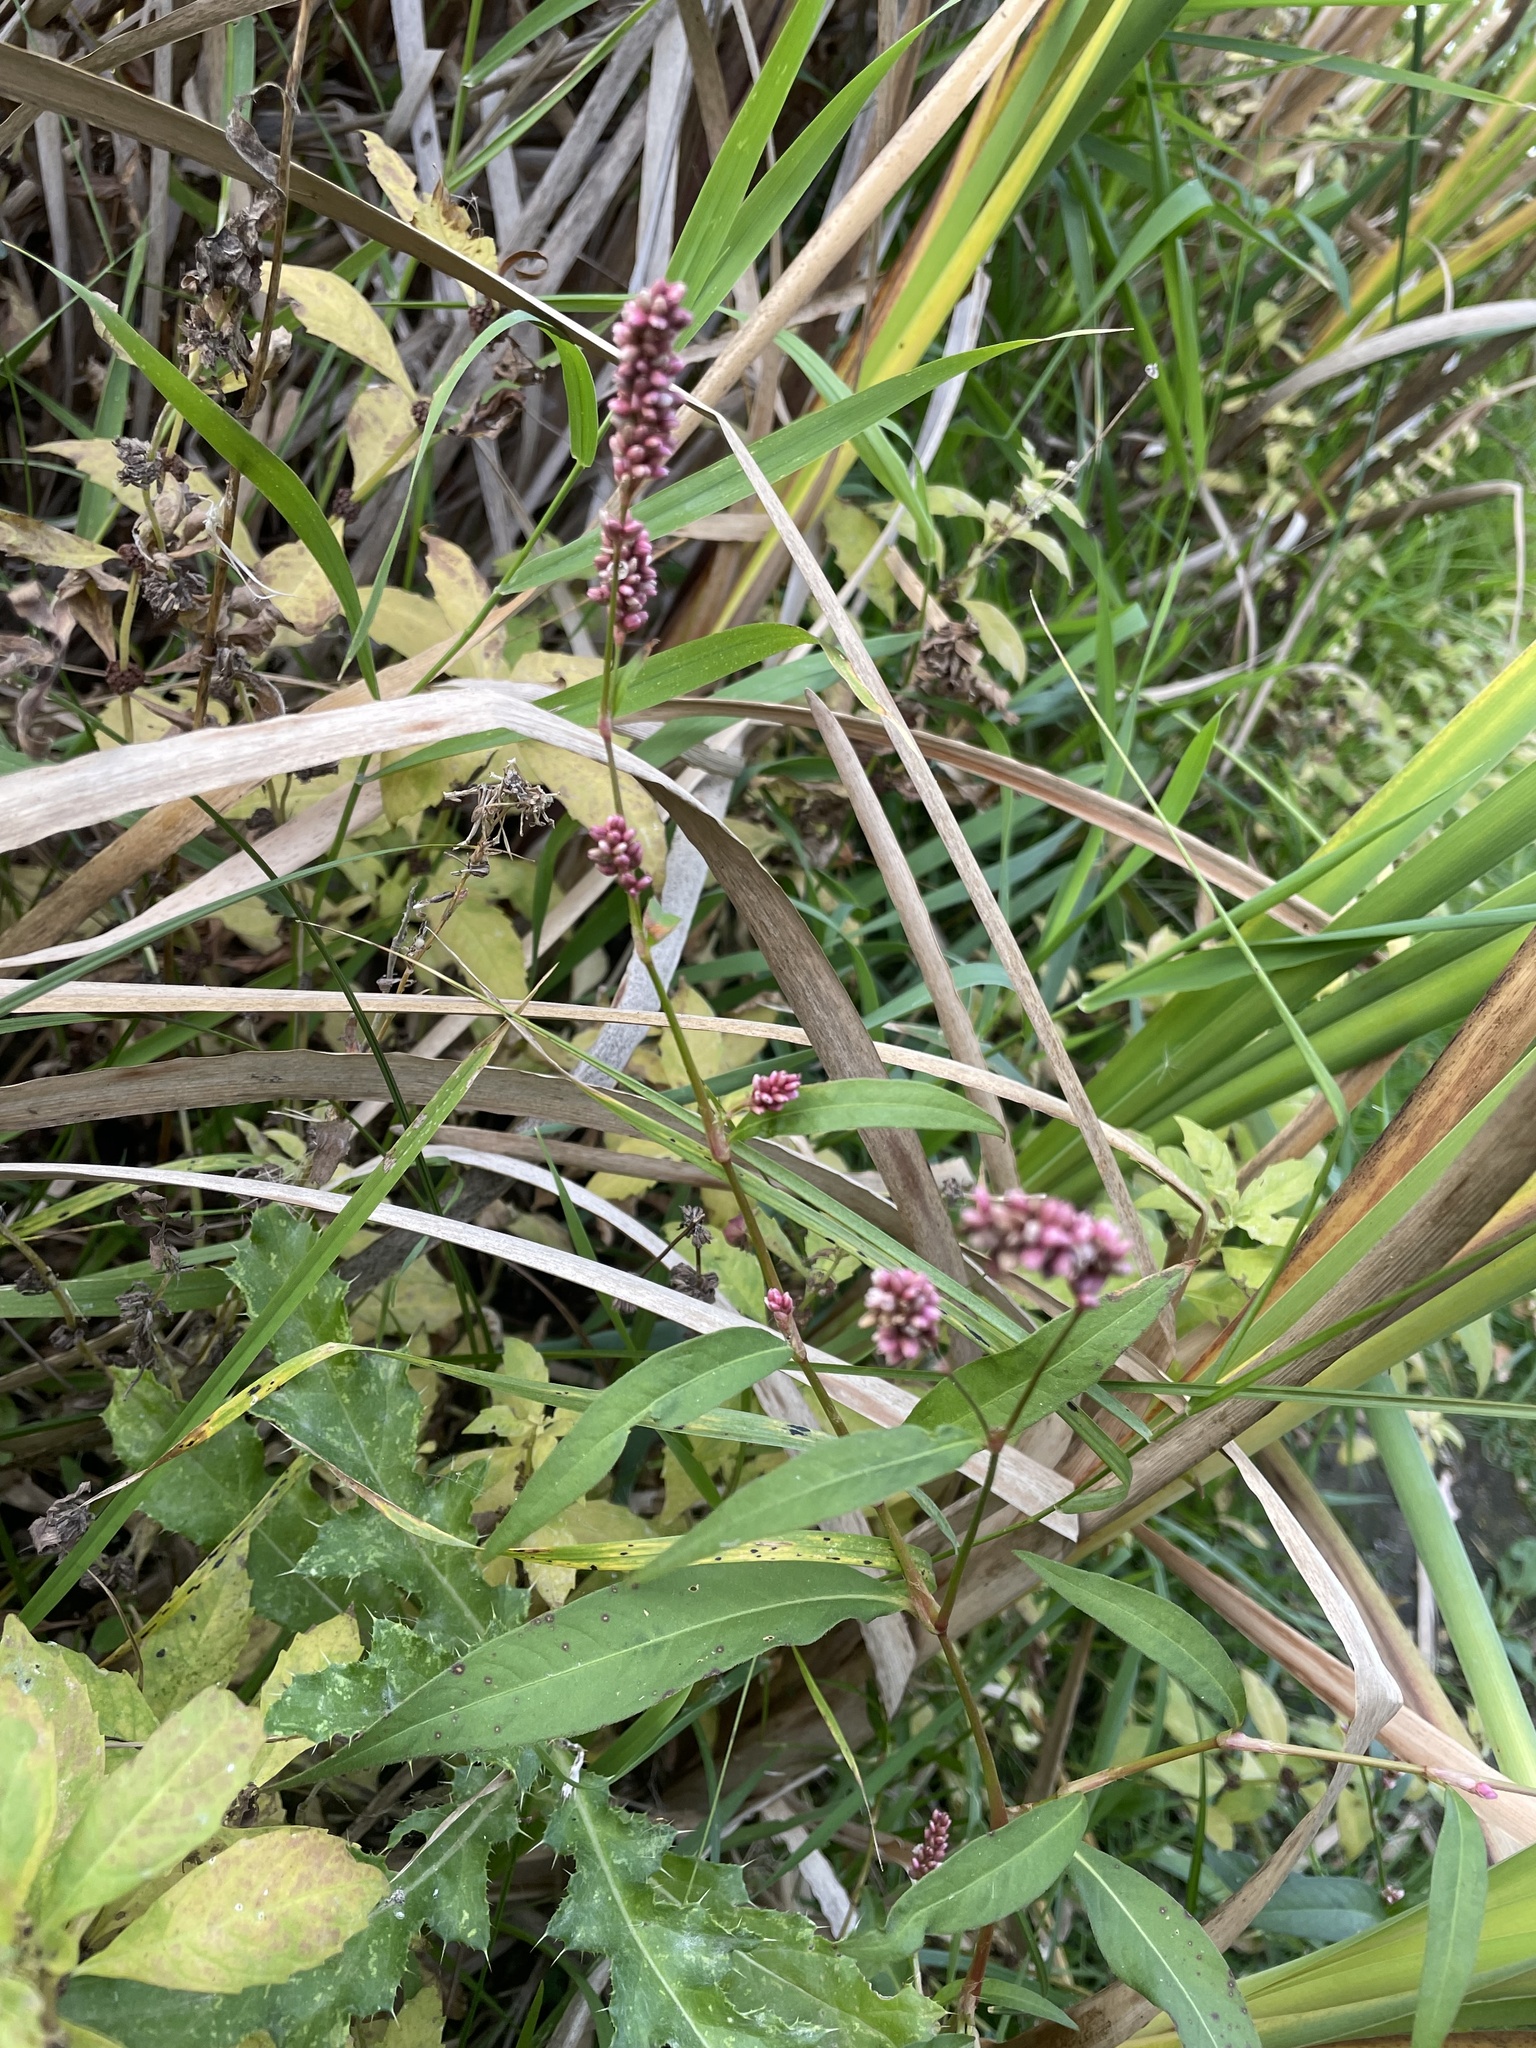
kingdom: Plantae
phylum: Tracheophyta
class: Magnoliopsida
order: Caryophyllales
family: Polygonaceae
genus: Persicaria
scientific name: Persicaria maculosa
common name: Redshank
